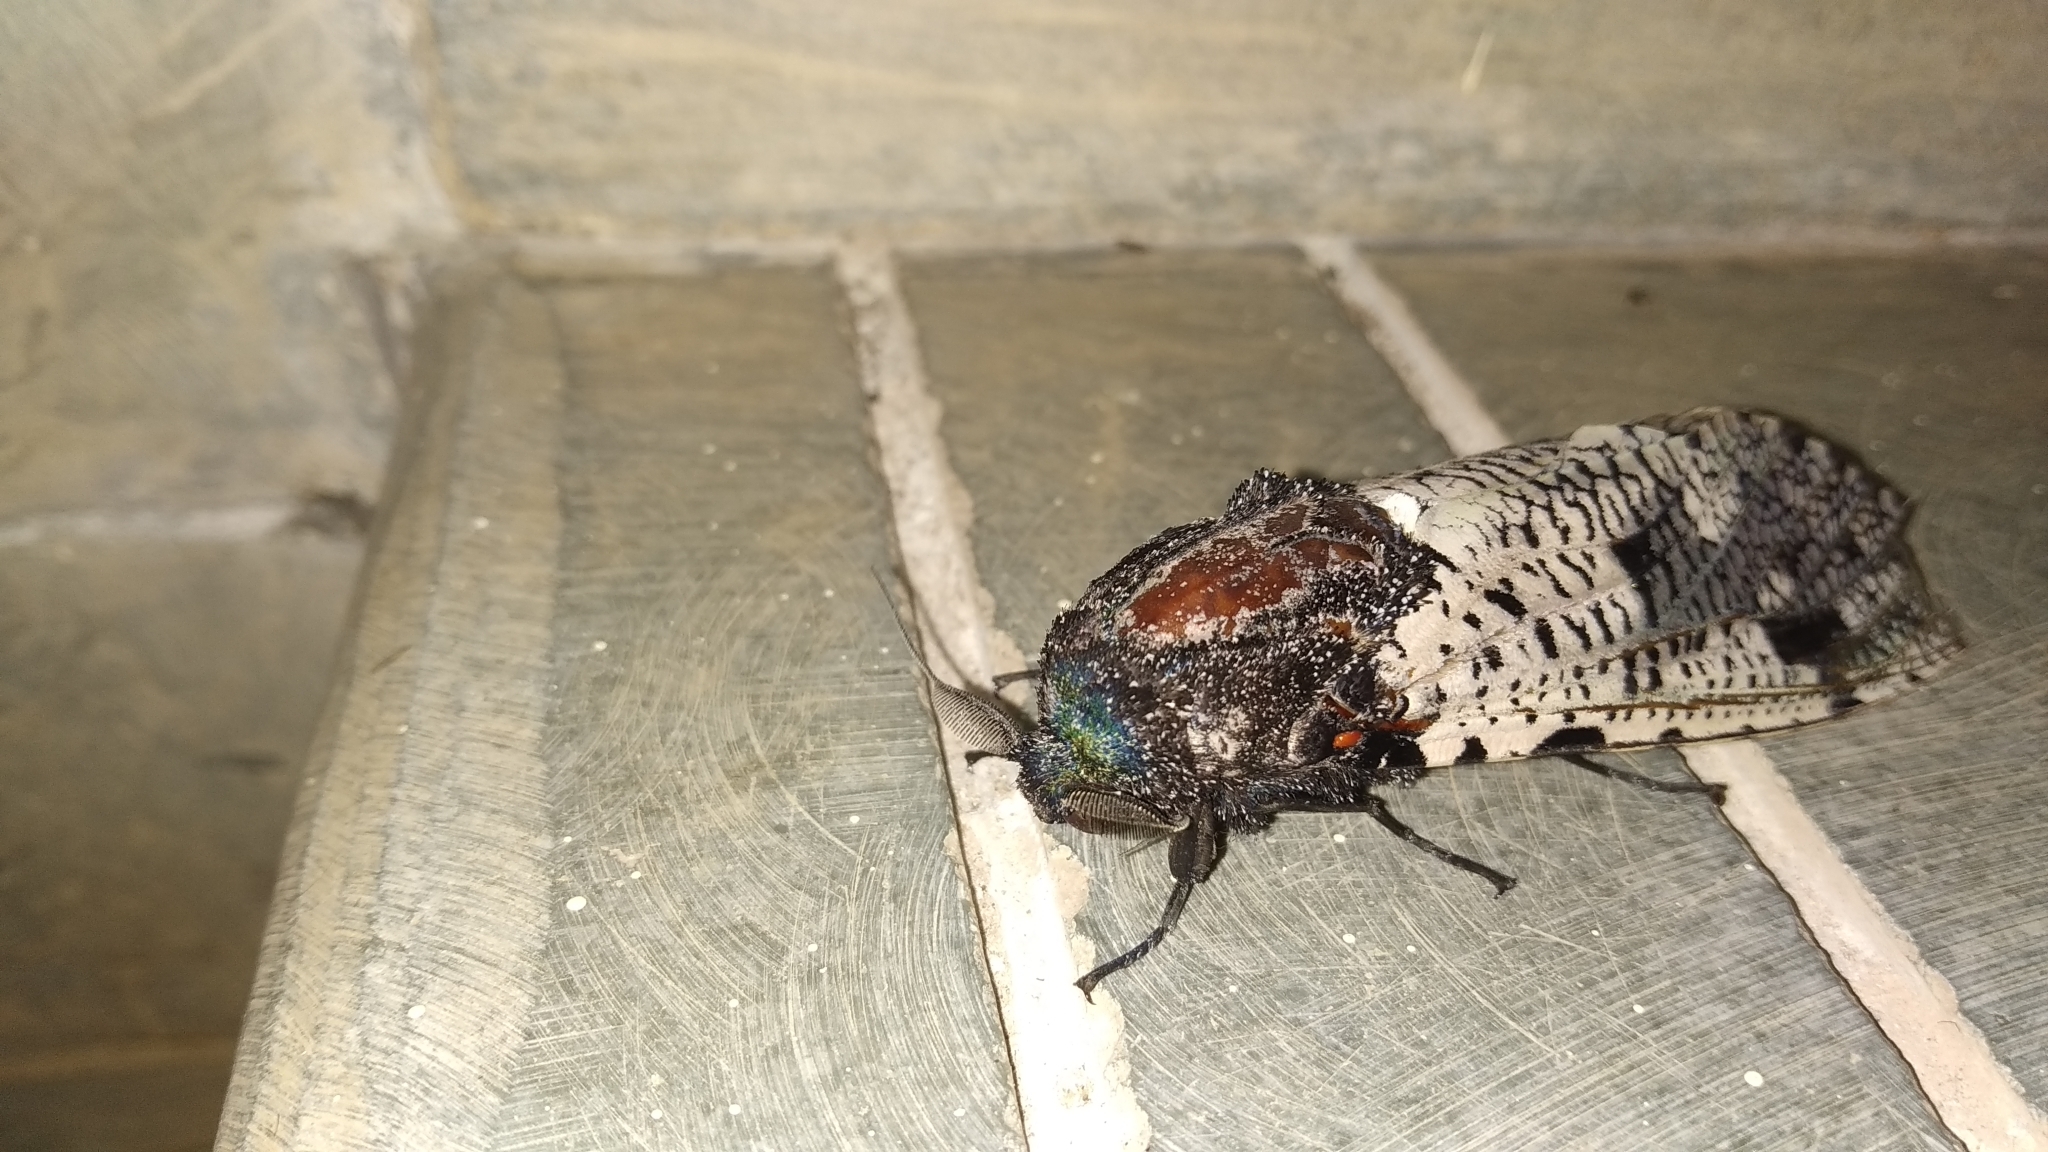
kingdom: Animalia
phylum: Arthropoda
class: Insecta
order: Lepidoptera
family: Cossidae
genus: Xyleutes
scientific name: Xyleutes strix
